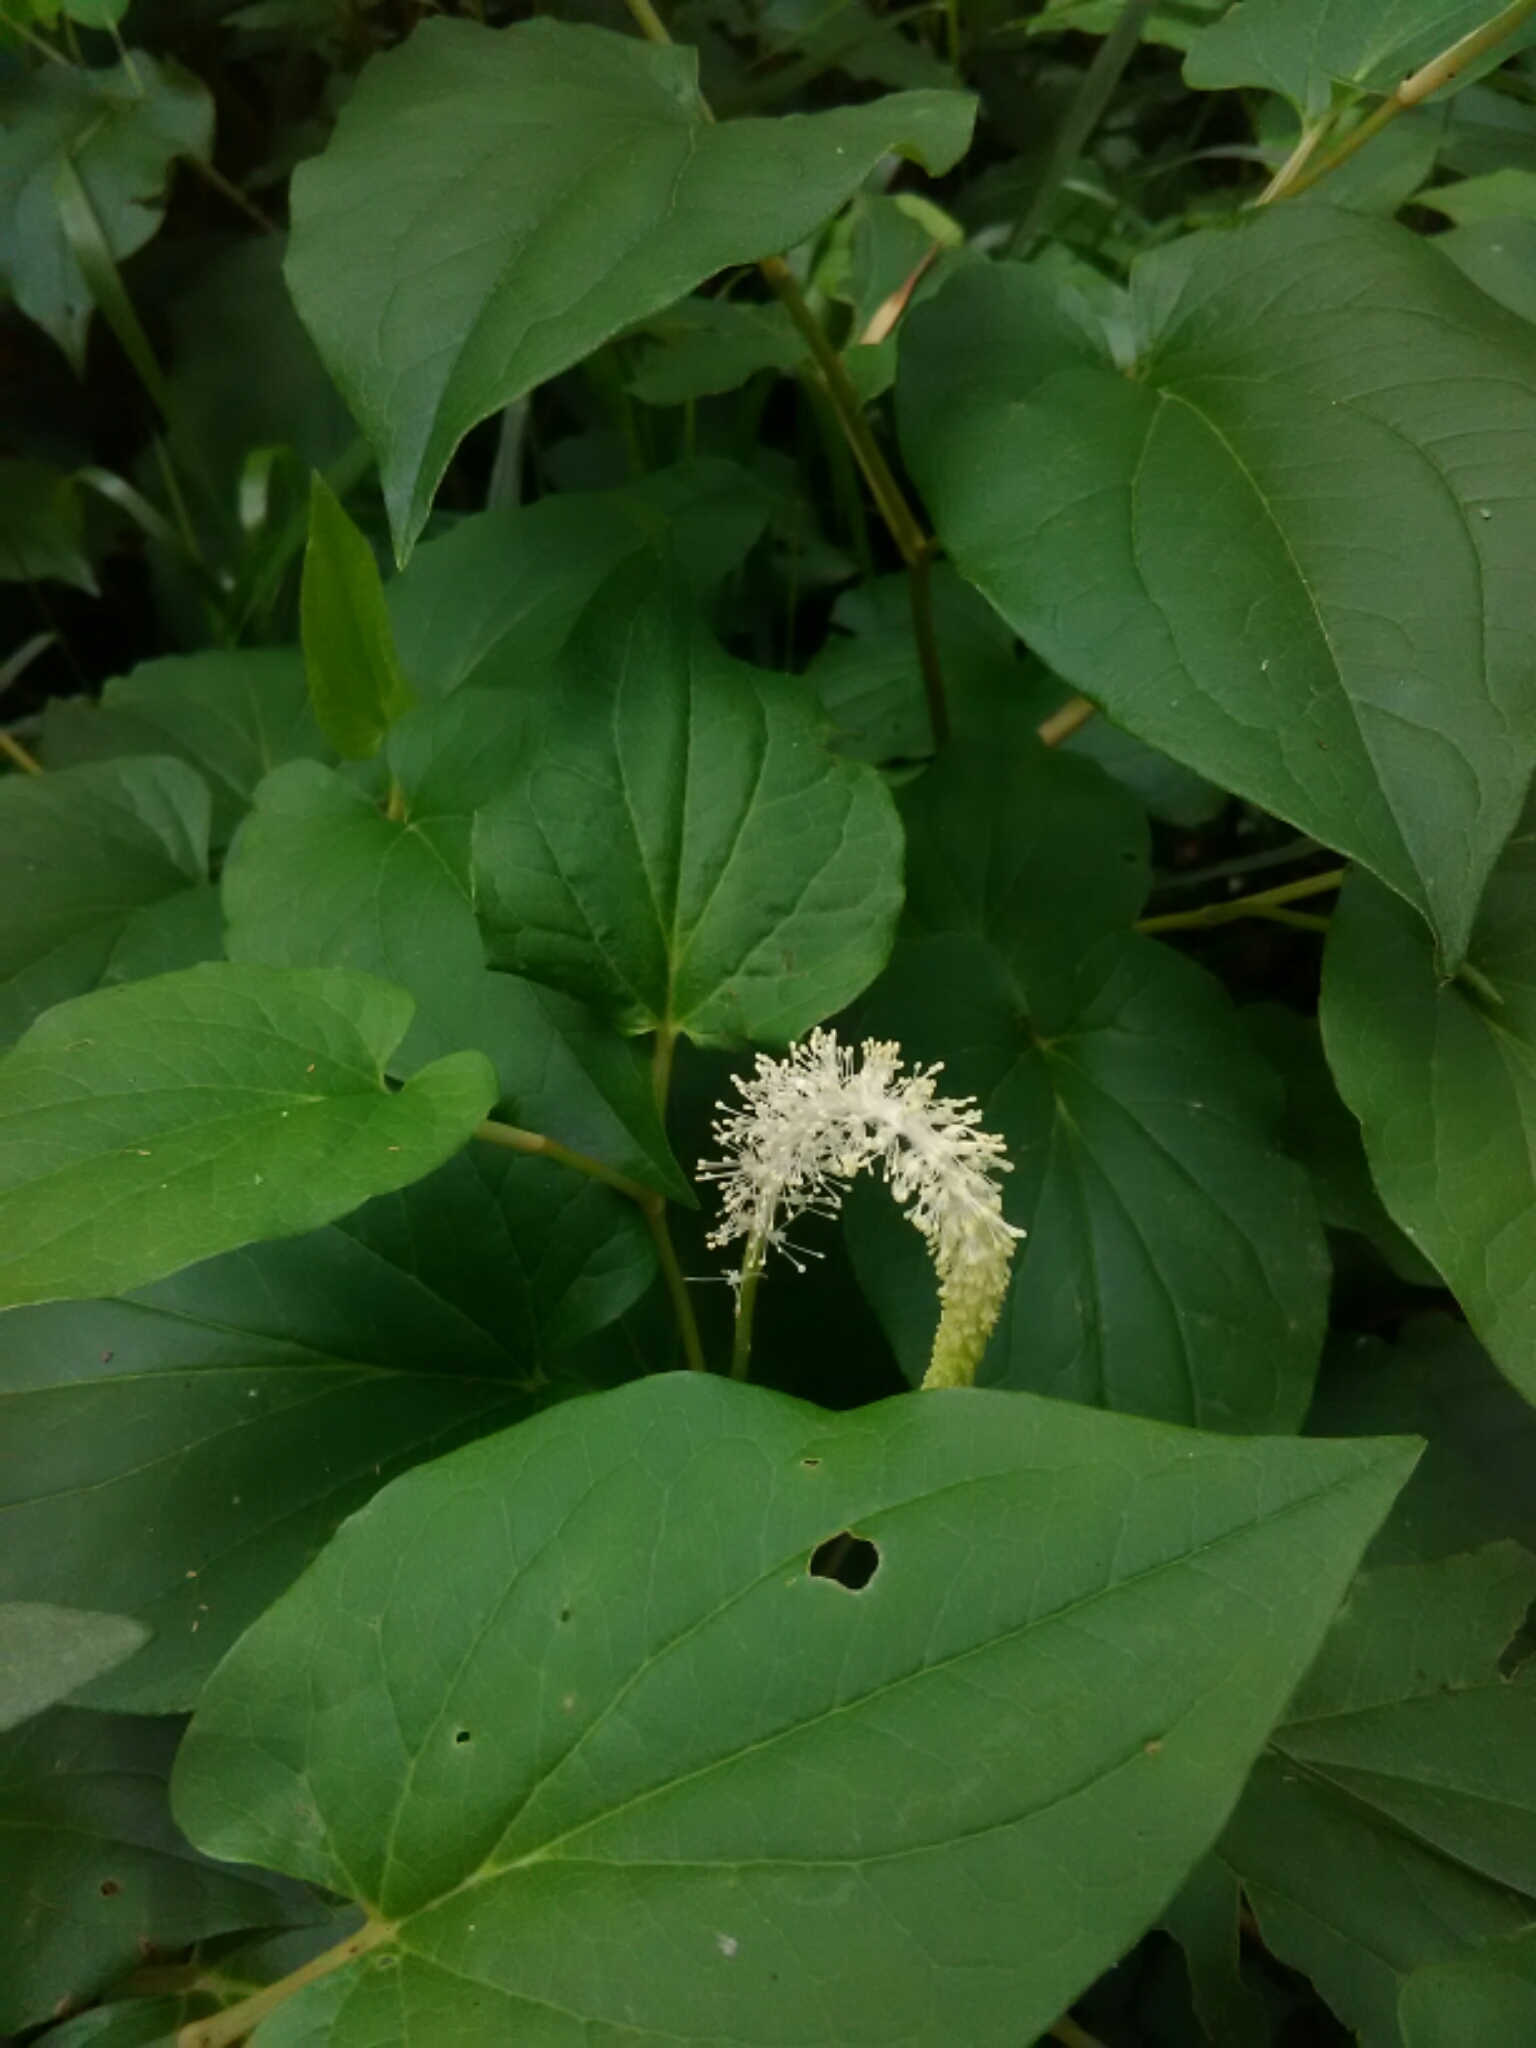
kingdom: Plantae
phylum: Tracheophyta
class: Magnoliopsida
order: Piperales
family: Saururaceae
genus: Saururus
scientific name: Saururus cernuus
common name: Lizard's-tail
